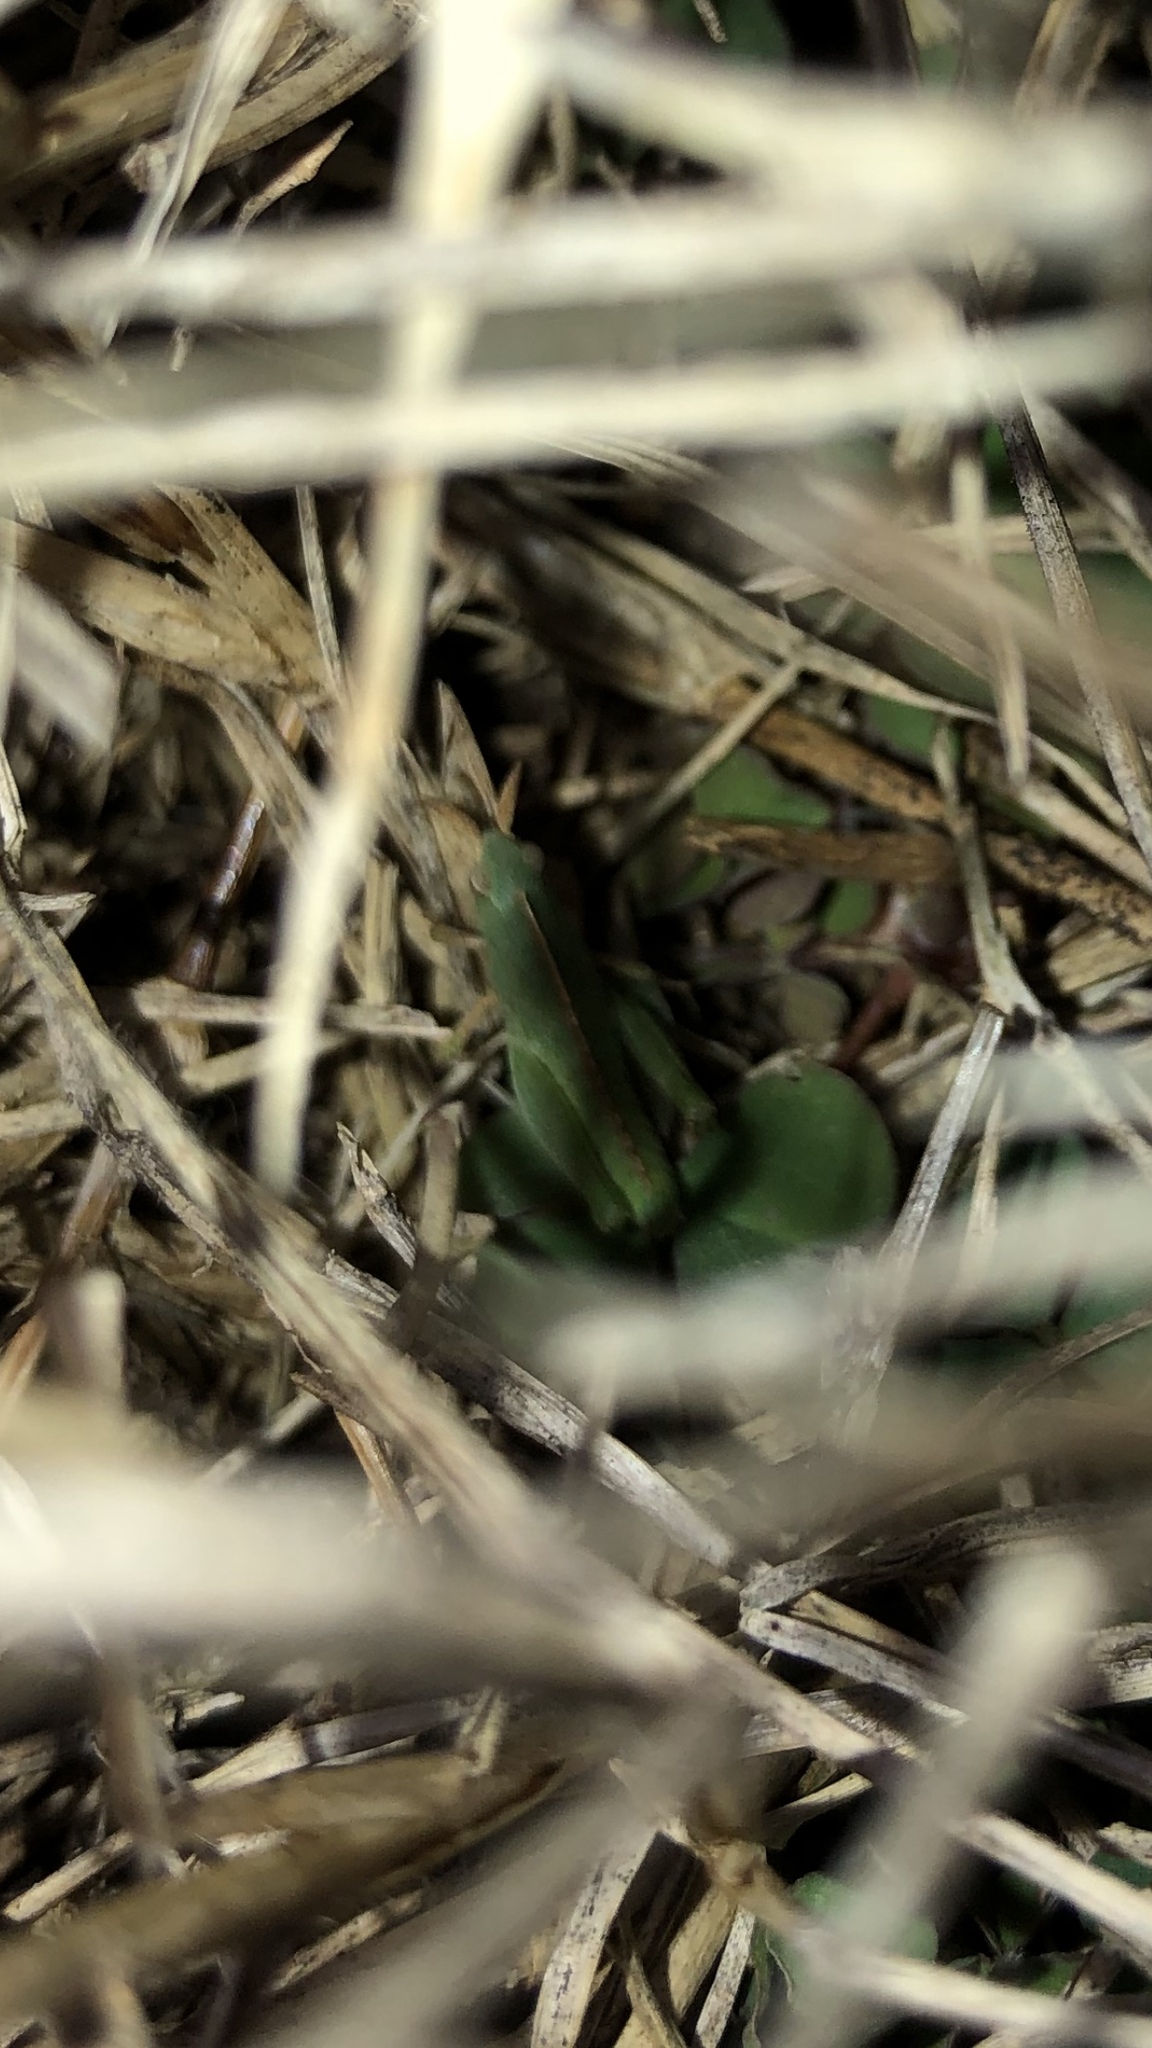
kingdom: Animalia
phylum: Arthropoda
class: Insecta
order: Orthoptera
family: Acrididae
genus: Chortophaga
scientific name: Chortophaga viridifasciata
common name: Green-striped grasshopper
